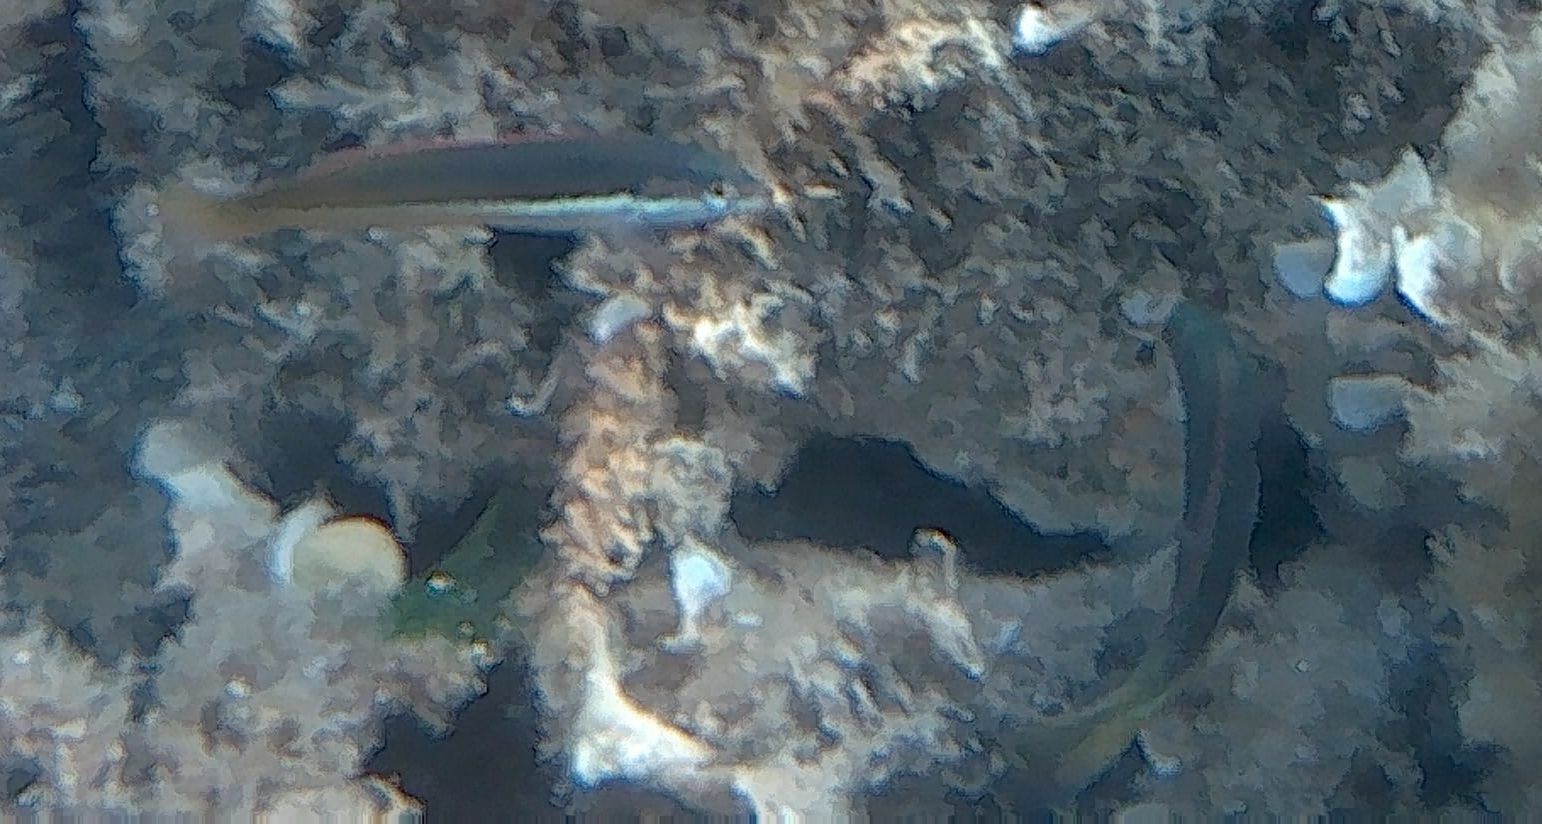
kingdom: Animalia
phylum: Chordata
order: Perciformes
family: Labridae
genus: Coris
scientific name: Coris julis
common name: Rainbow wrasse
